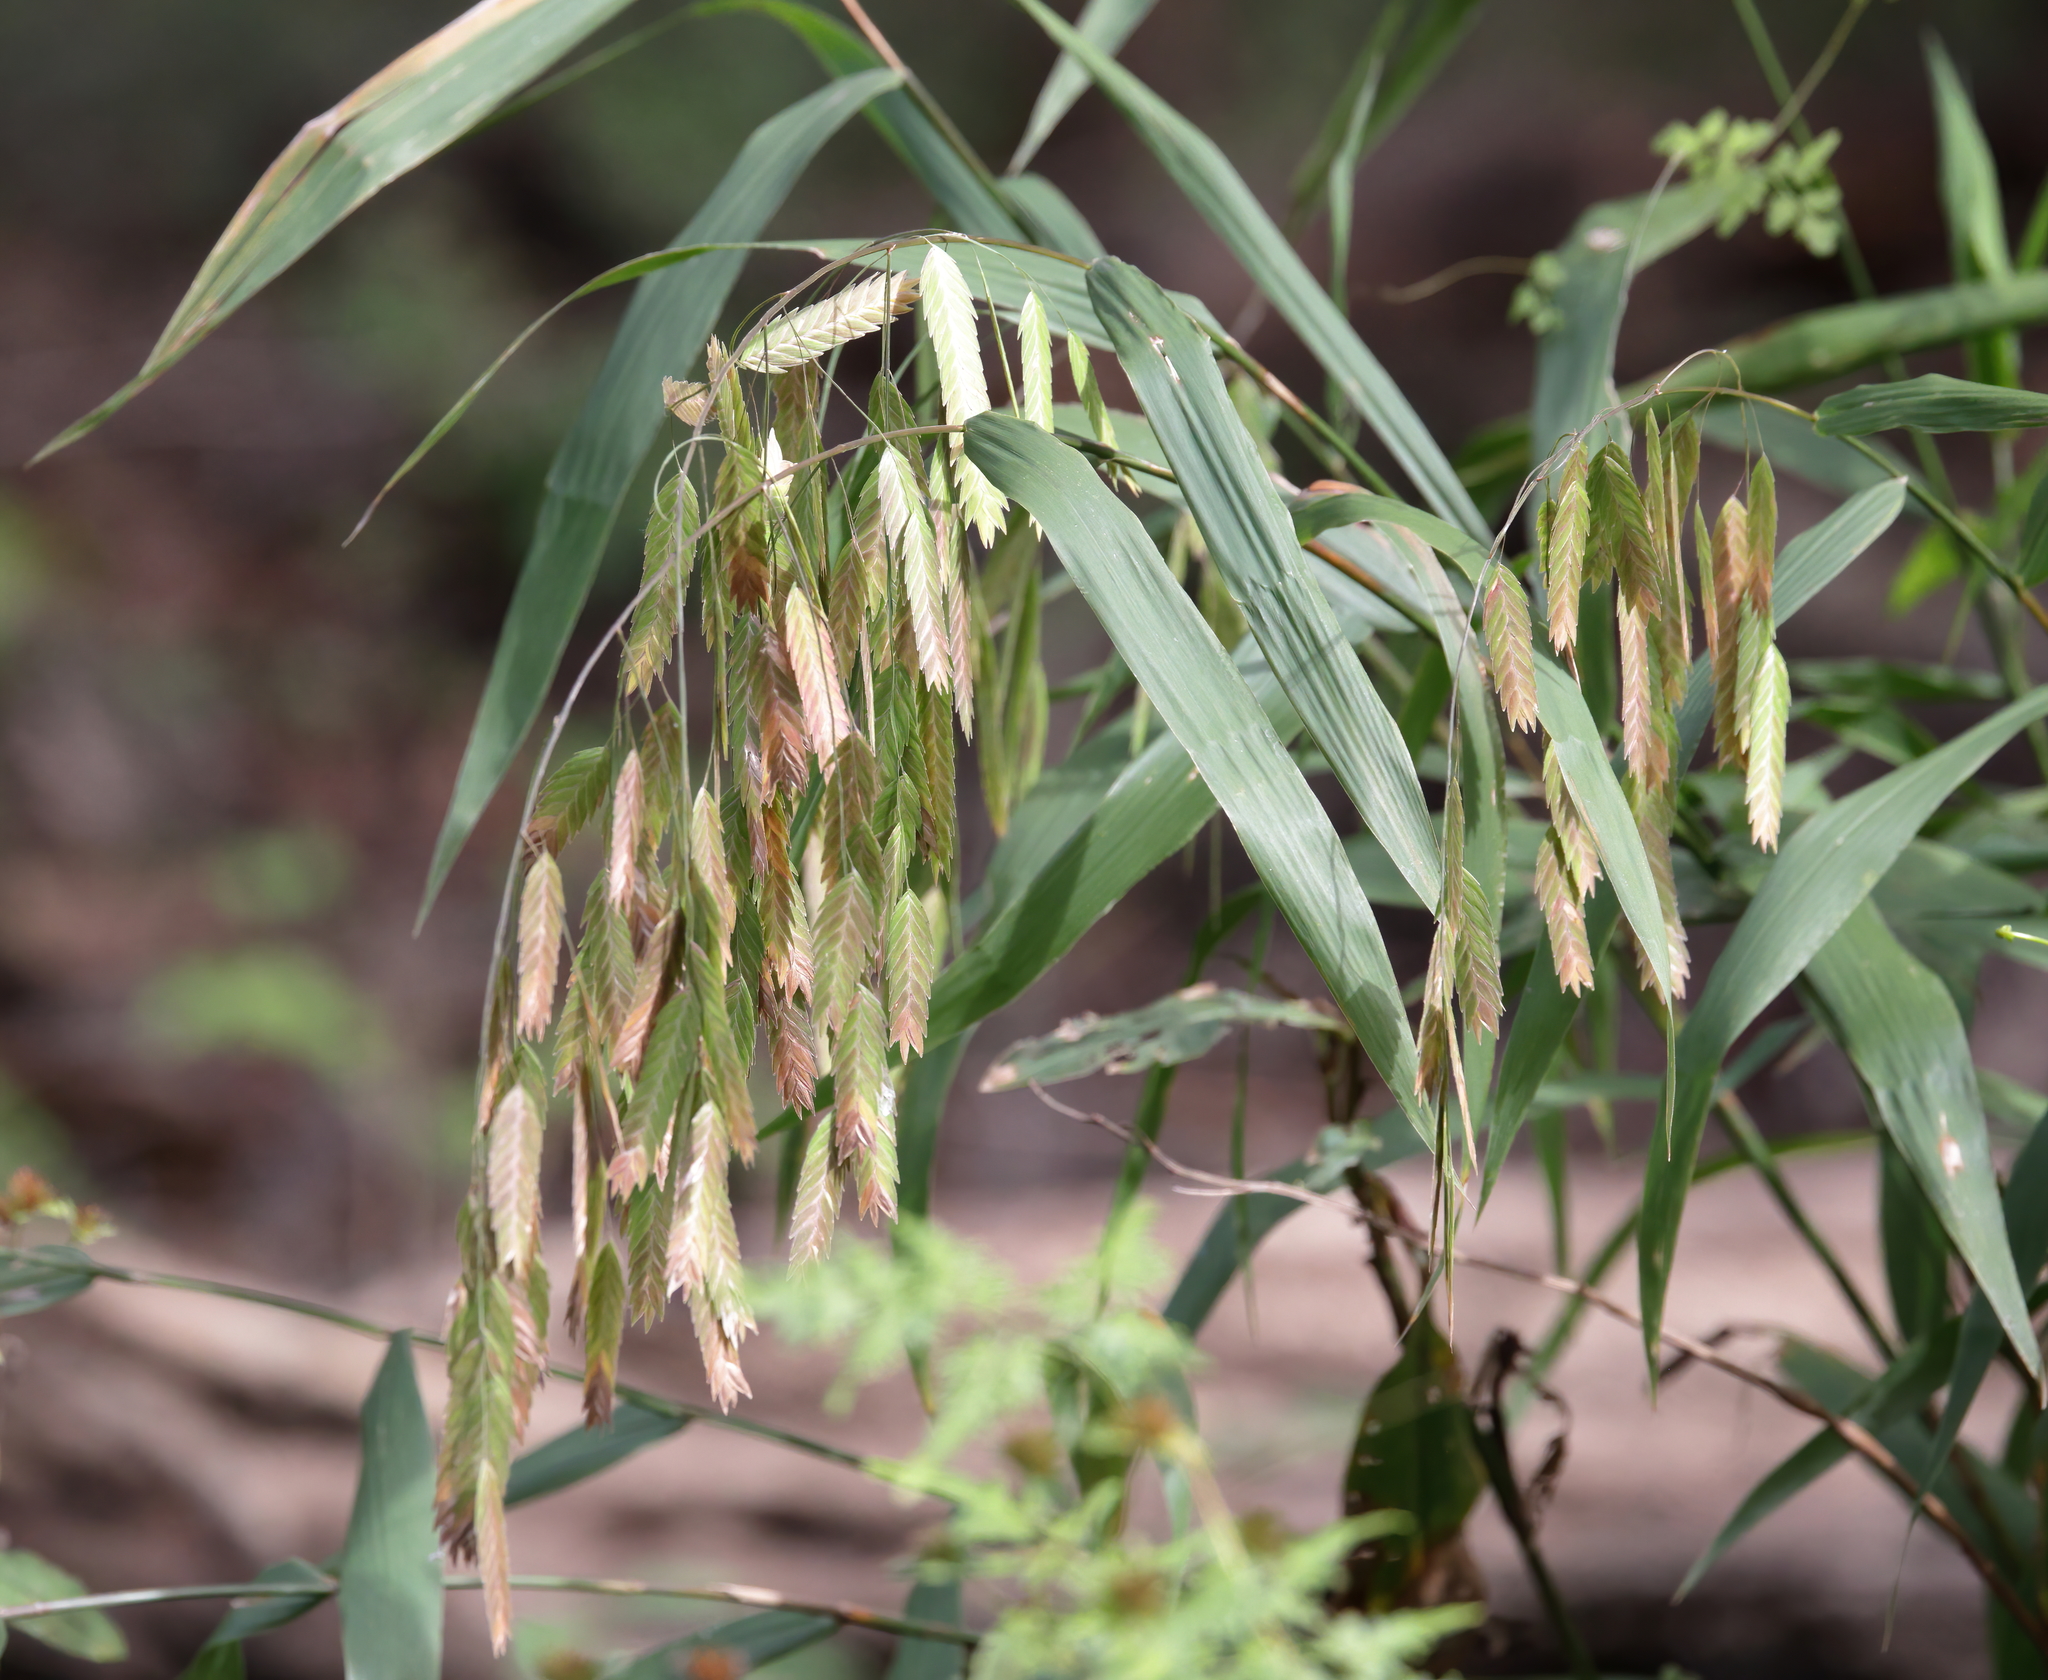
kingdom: Plantae
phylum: Tracheophyta
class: Liliopsida
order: Poales
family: Poaceae
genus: Chasmanthium
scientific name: Chasmanthium latifolium
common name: Broad-leaved chasmanthium
